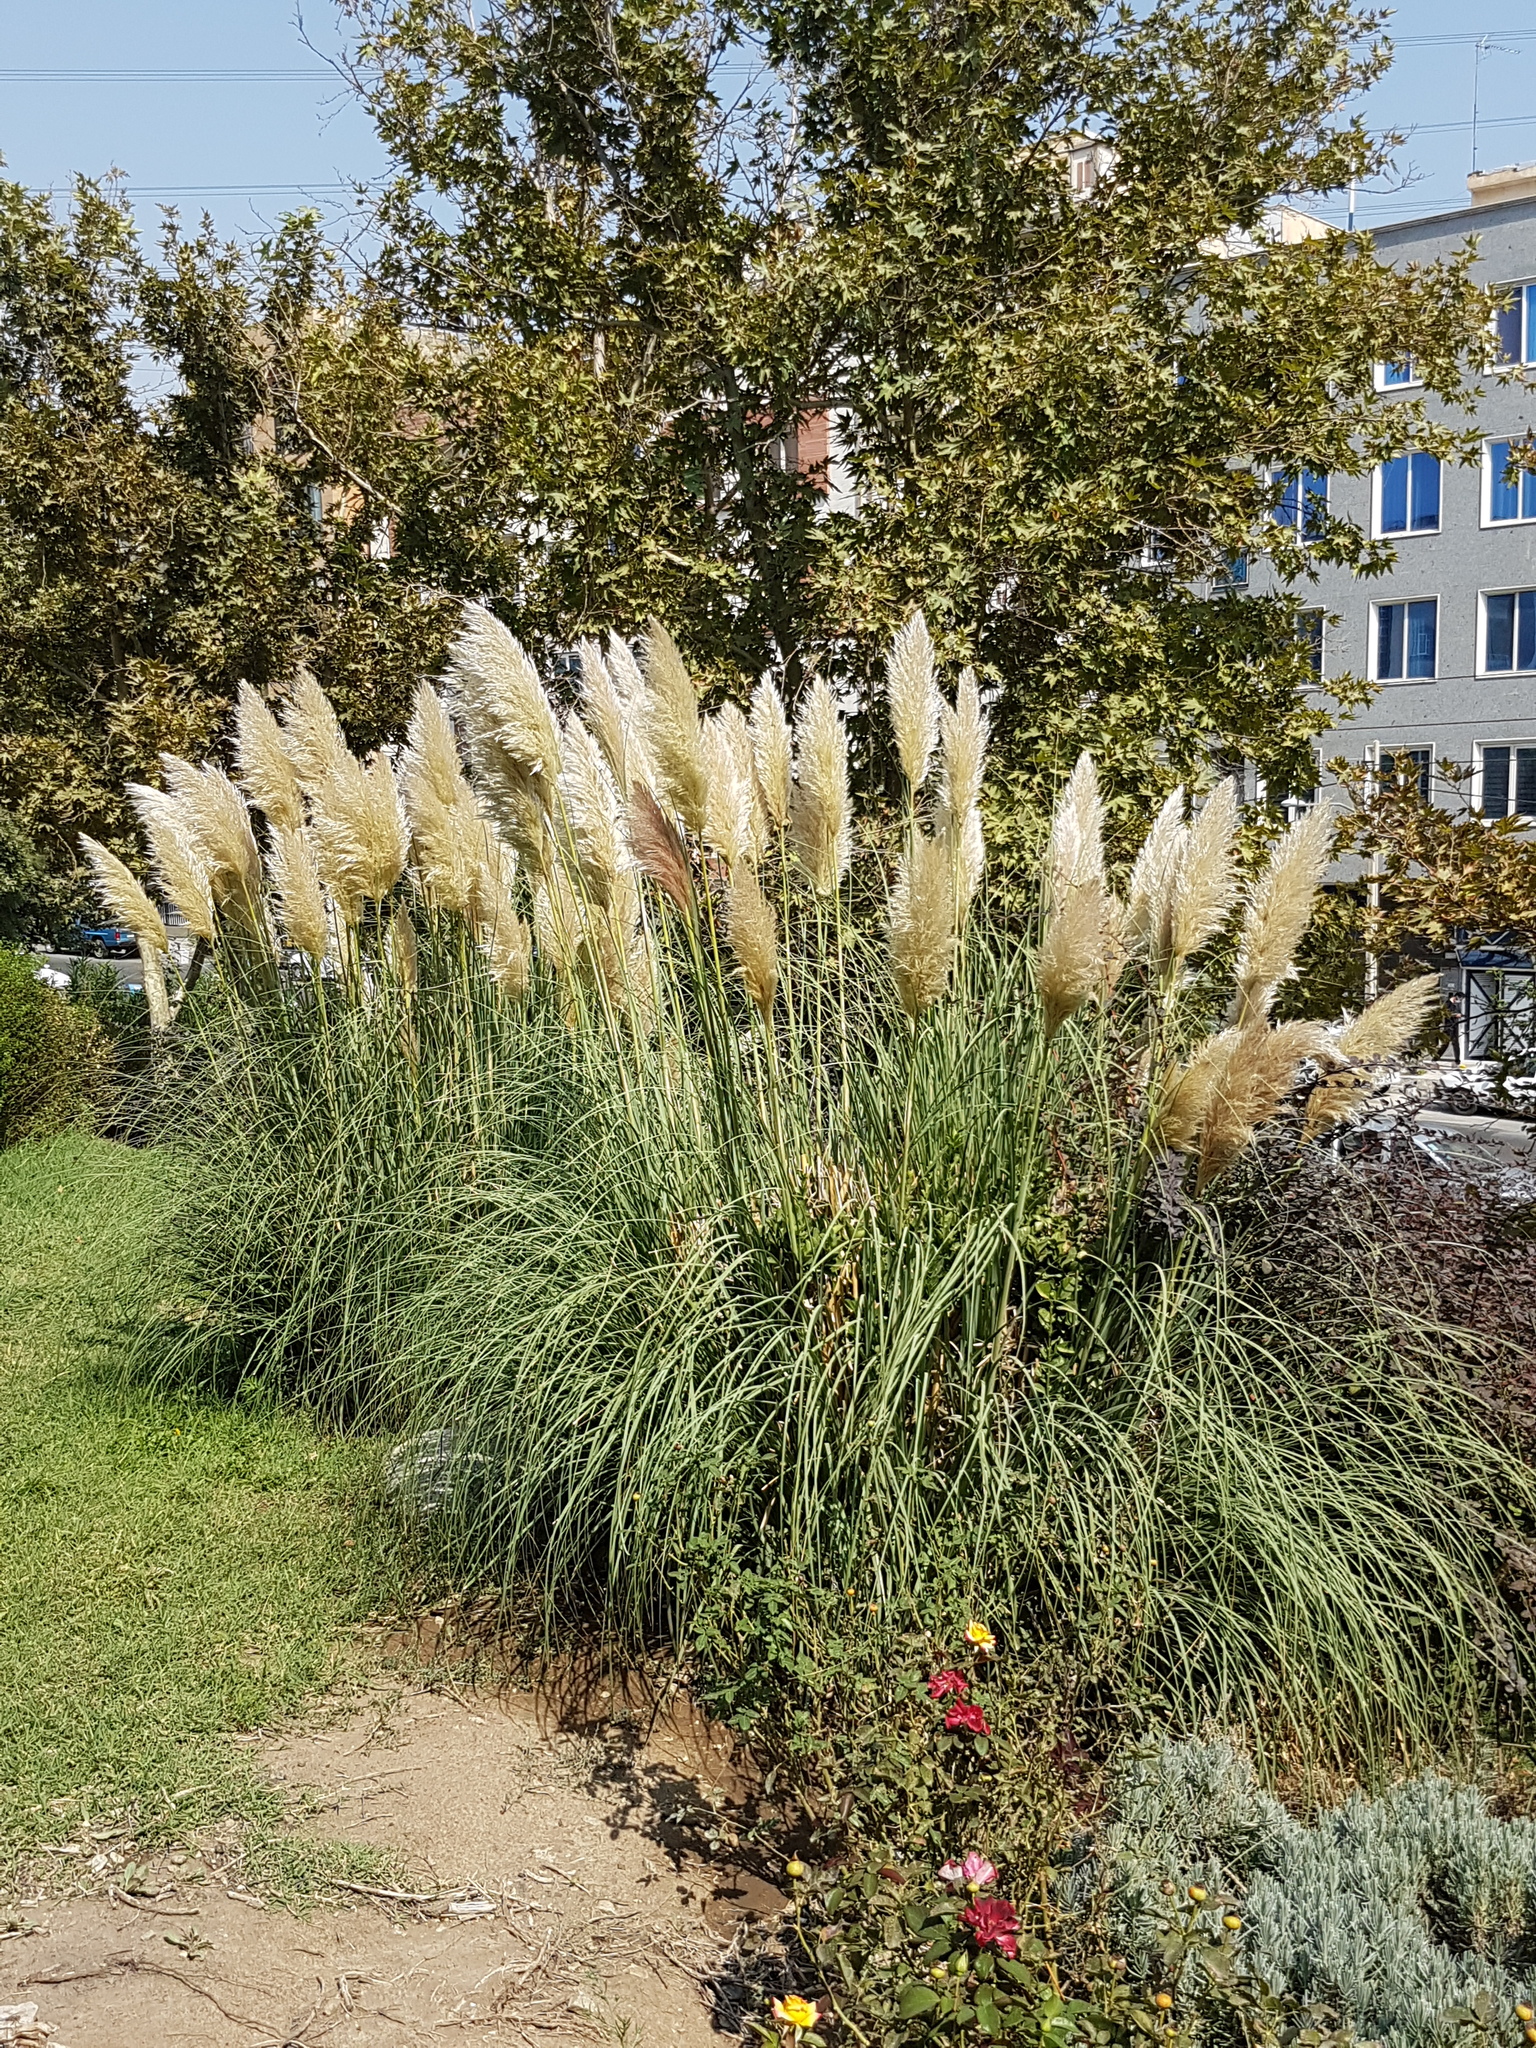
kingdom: Plantae
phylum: Tracheophyta
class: Liliopsida
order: Poales
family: Poaceae
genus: Cortaderia
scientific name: Cortaderia selloana
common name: Uruguayan pampas grass
